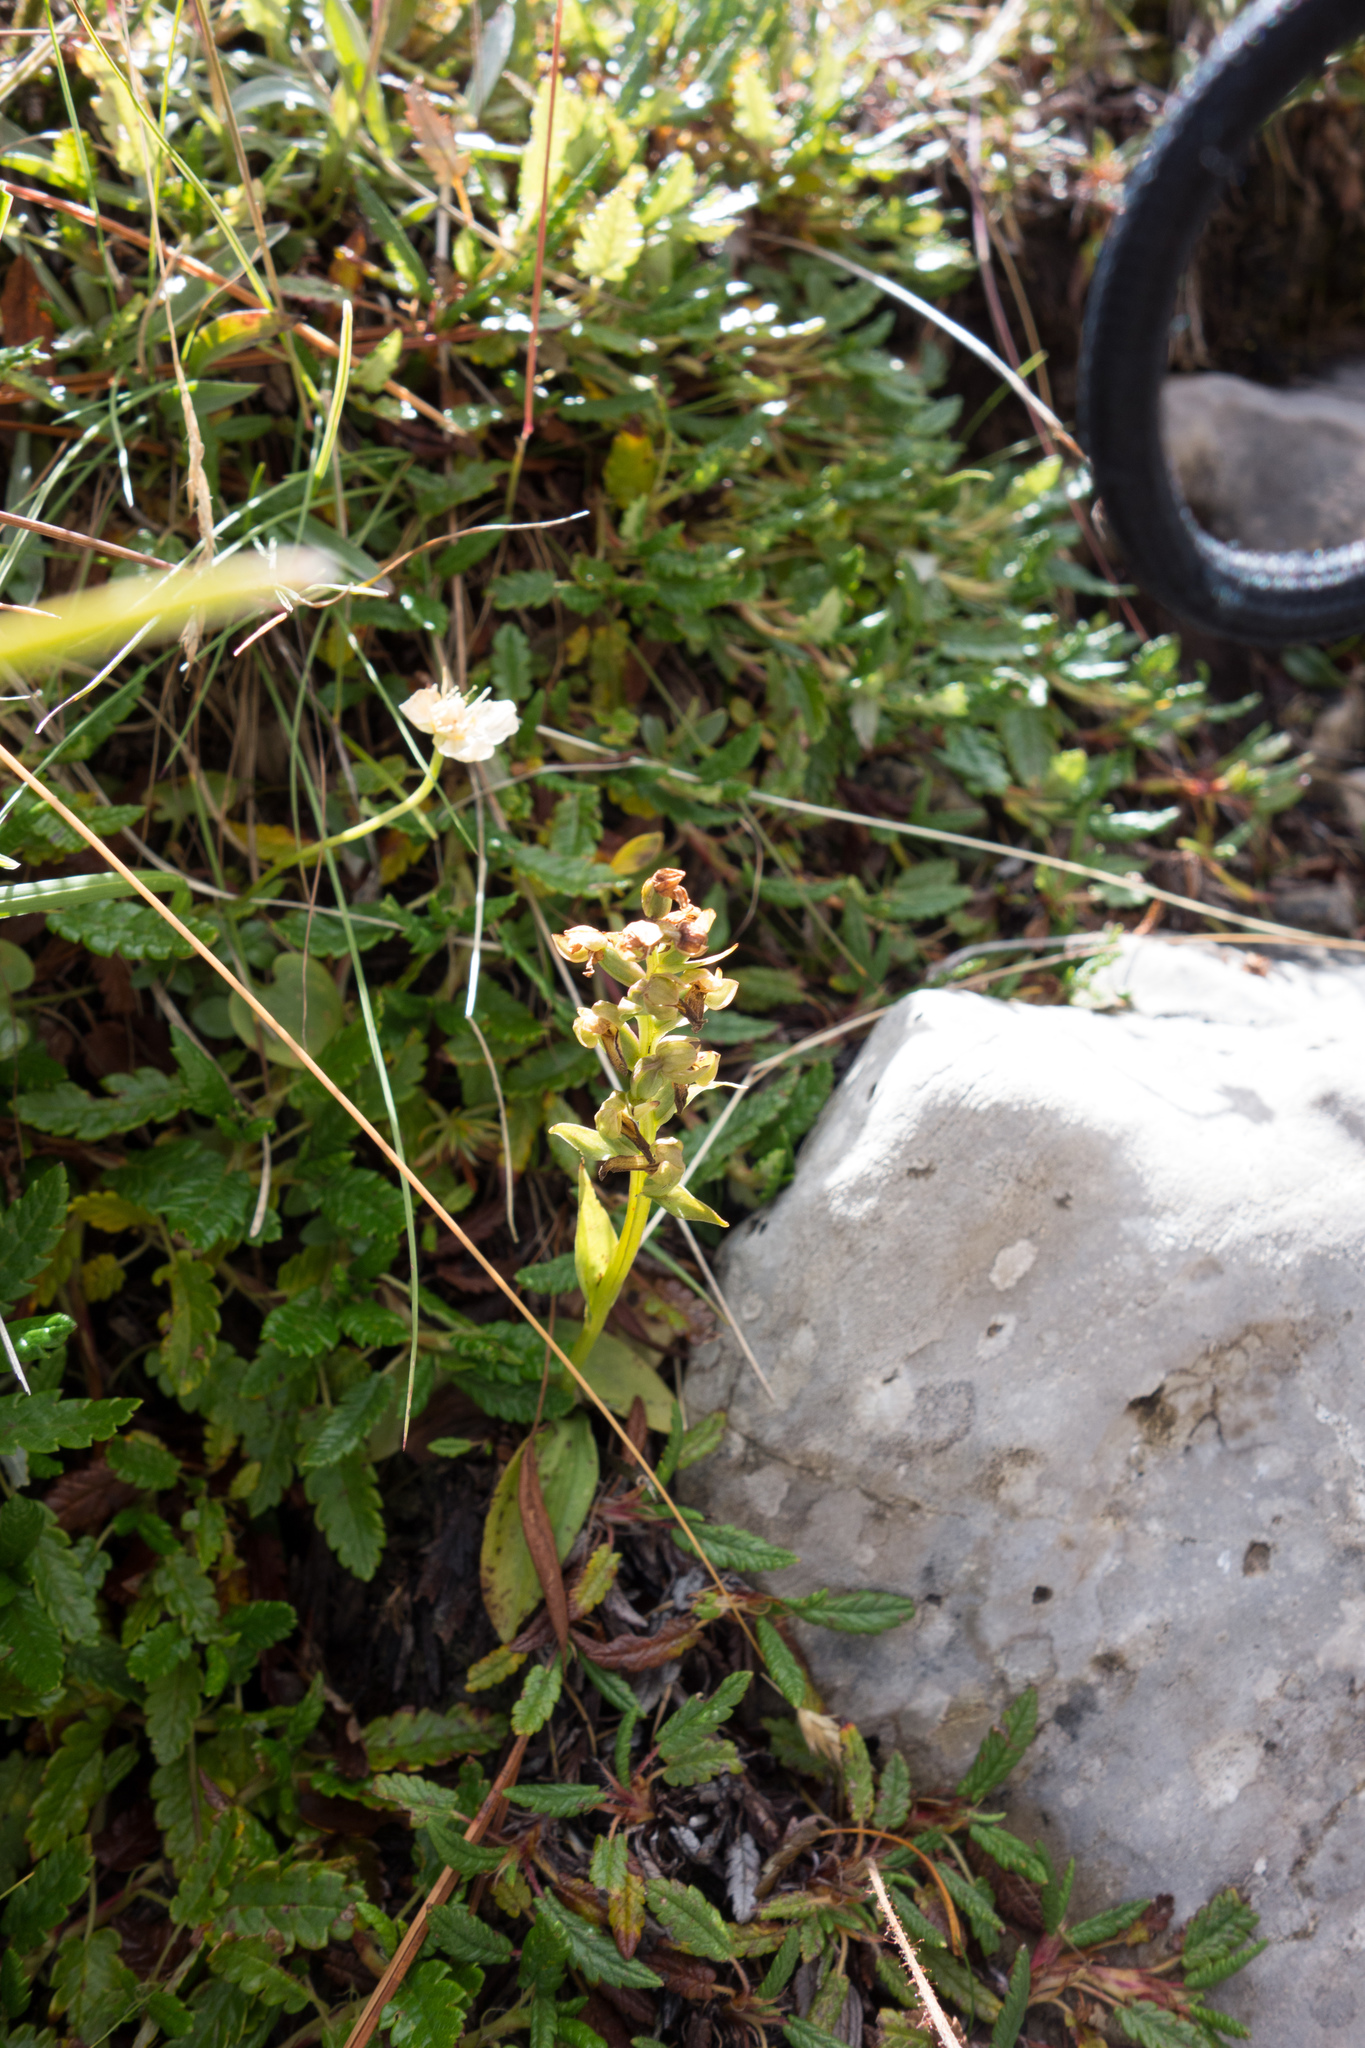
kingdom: Plantae
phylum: Tracheophyta
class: Liliopsida
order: Asparagales
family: Orchidaceae
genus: Dactylorhiza
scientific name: Dactylorhiza viridis
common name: Longbract frog orchid
